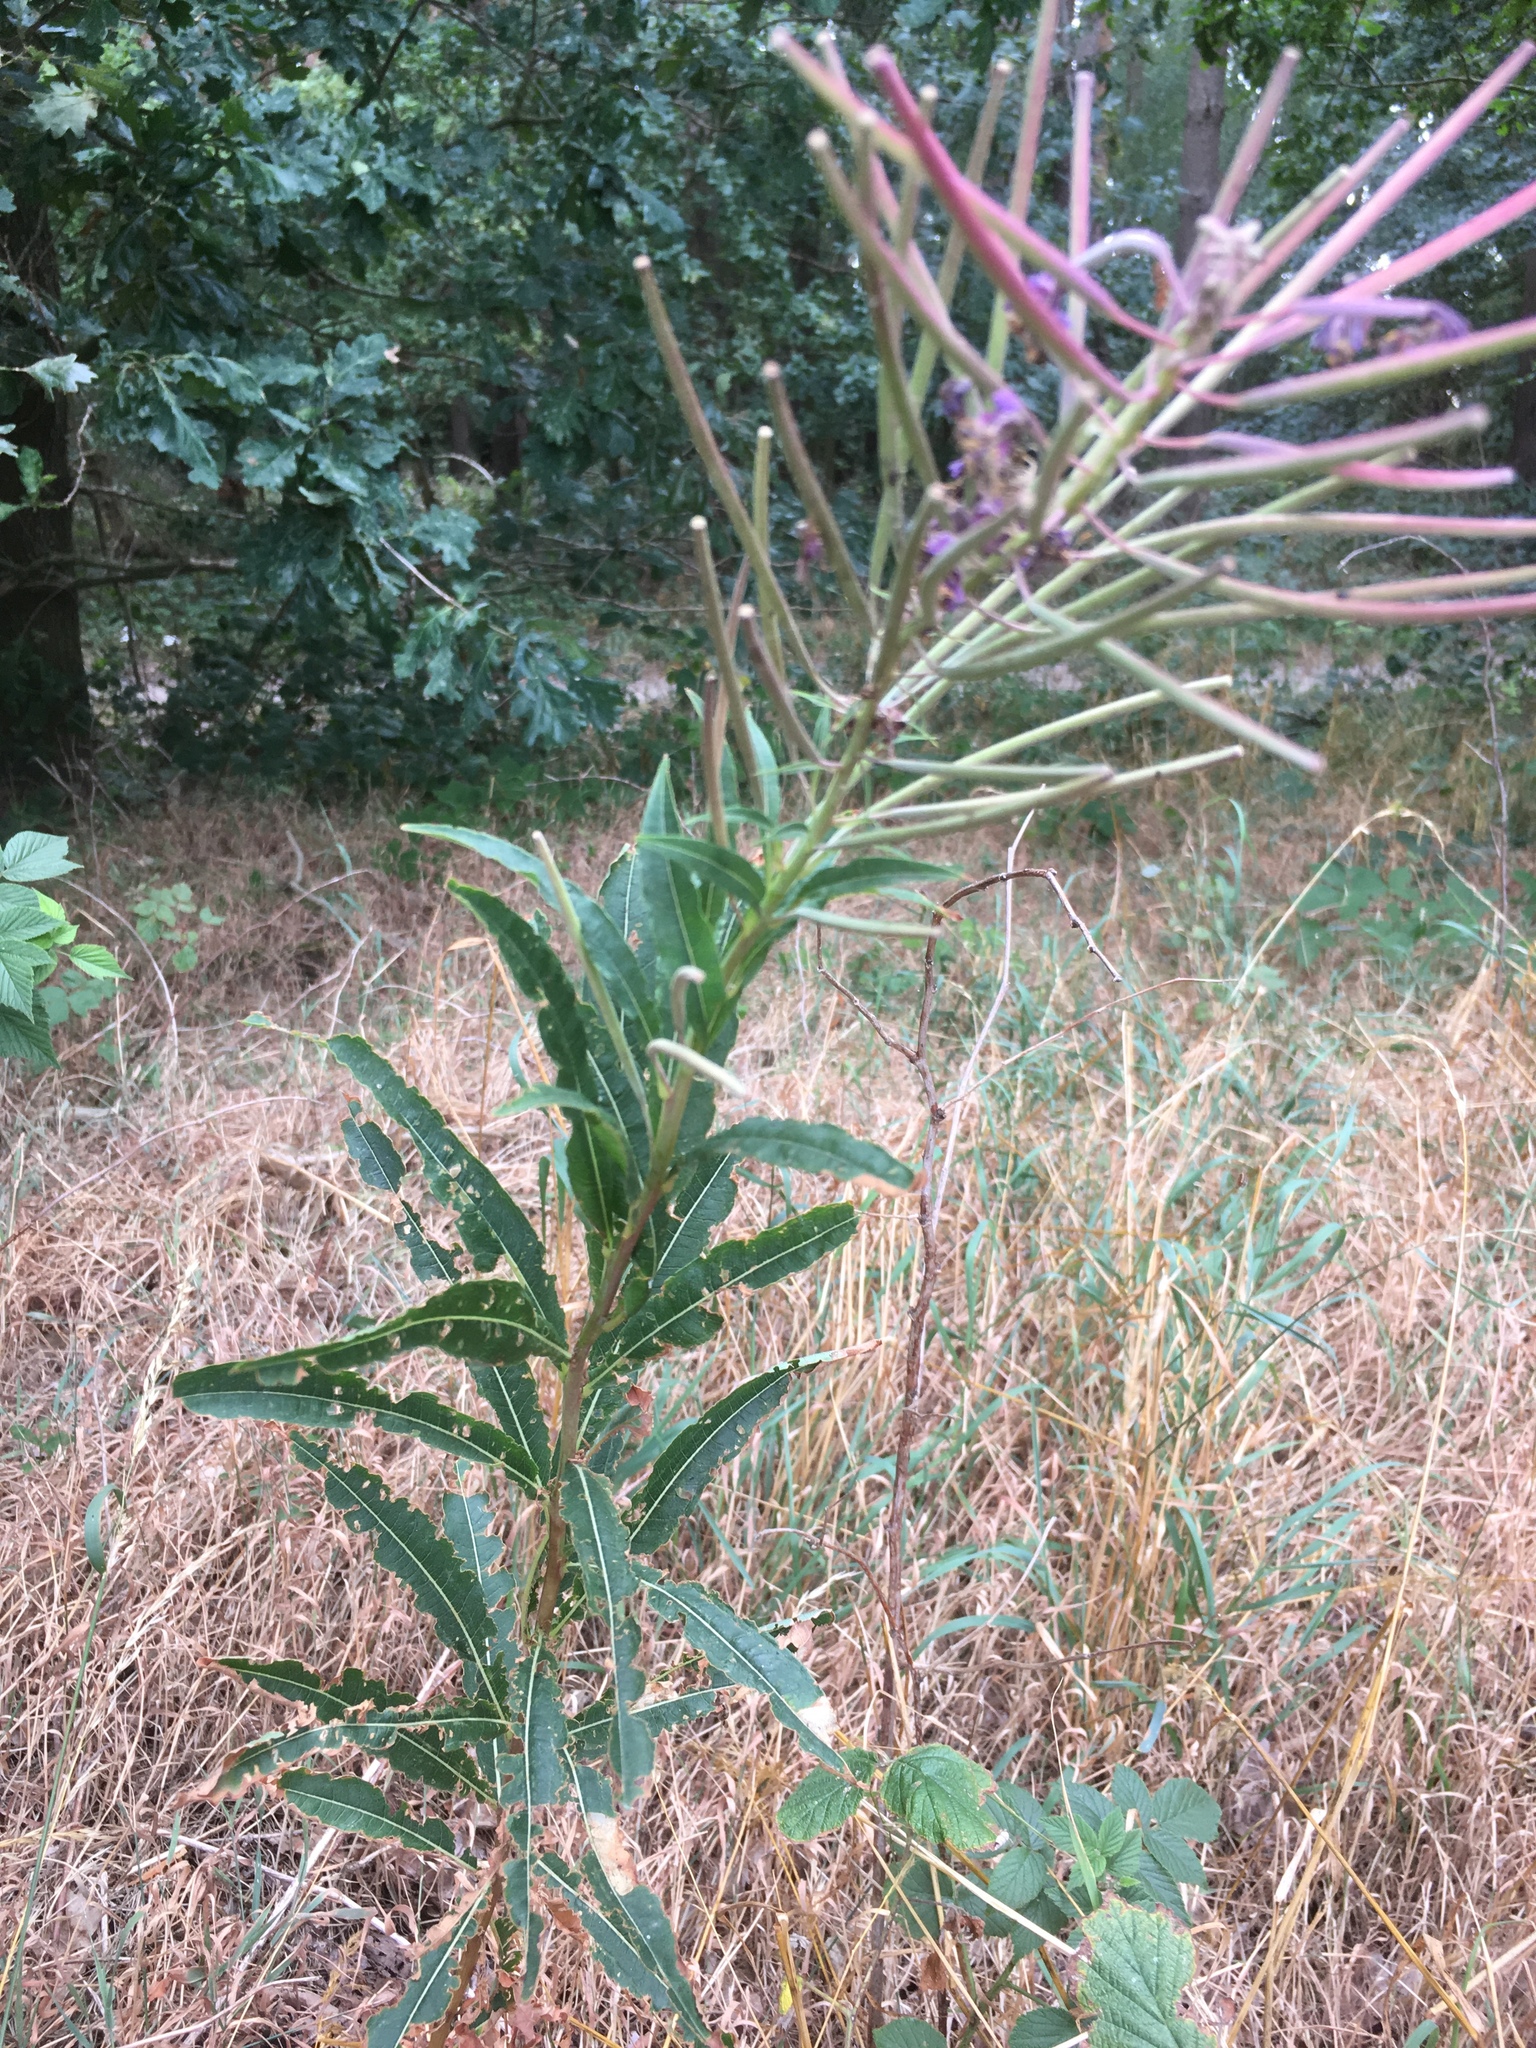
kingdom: Plantae
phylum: Tracheophyta
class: Magnoliopsida
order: Myrtales
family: Onagraceae
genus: Chamaenerion
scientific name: Chamaenerion angustifolium
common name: Fireweed
